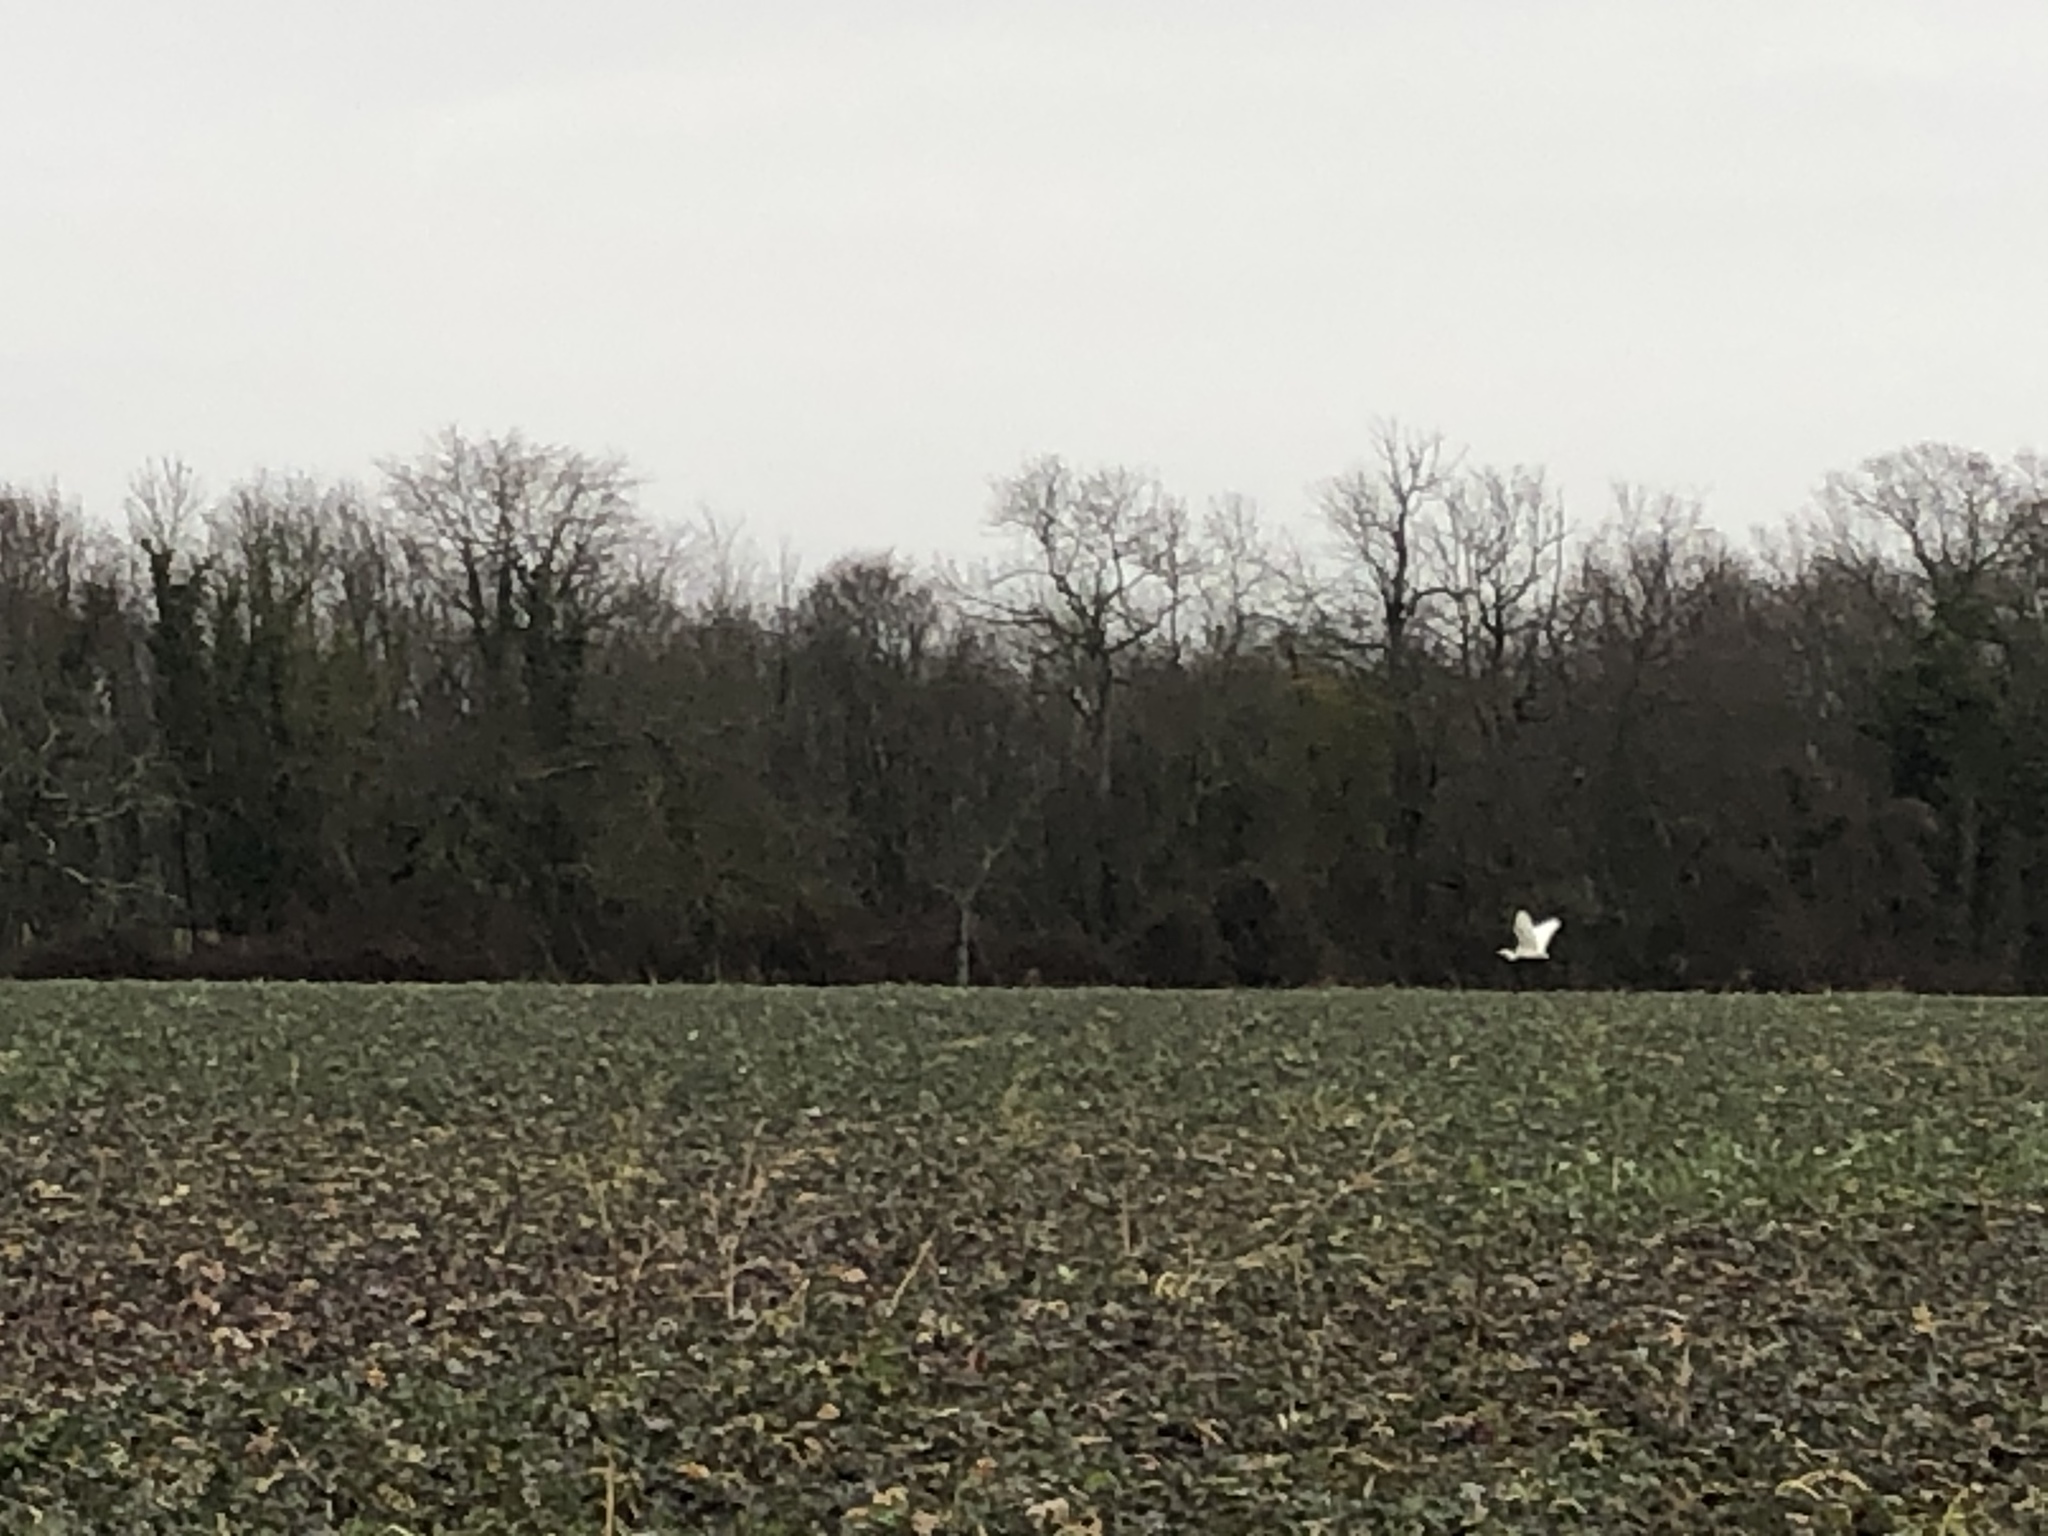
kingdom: Animalia
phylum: Chordata
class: Aves
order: Pelecaniformes
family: Ardeidae
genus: Ardea
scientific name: Ardea alba
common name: Great egret
